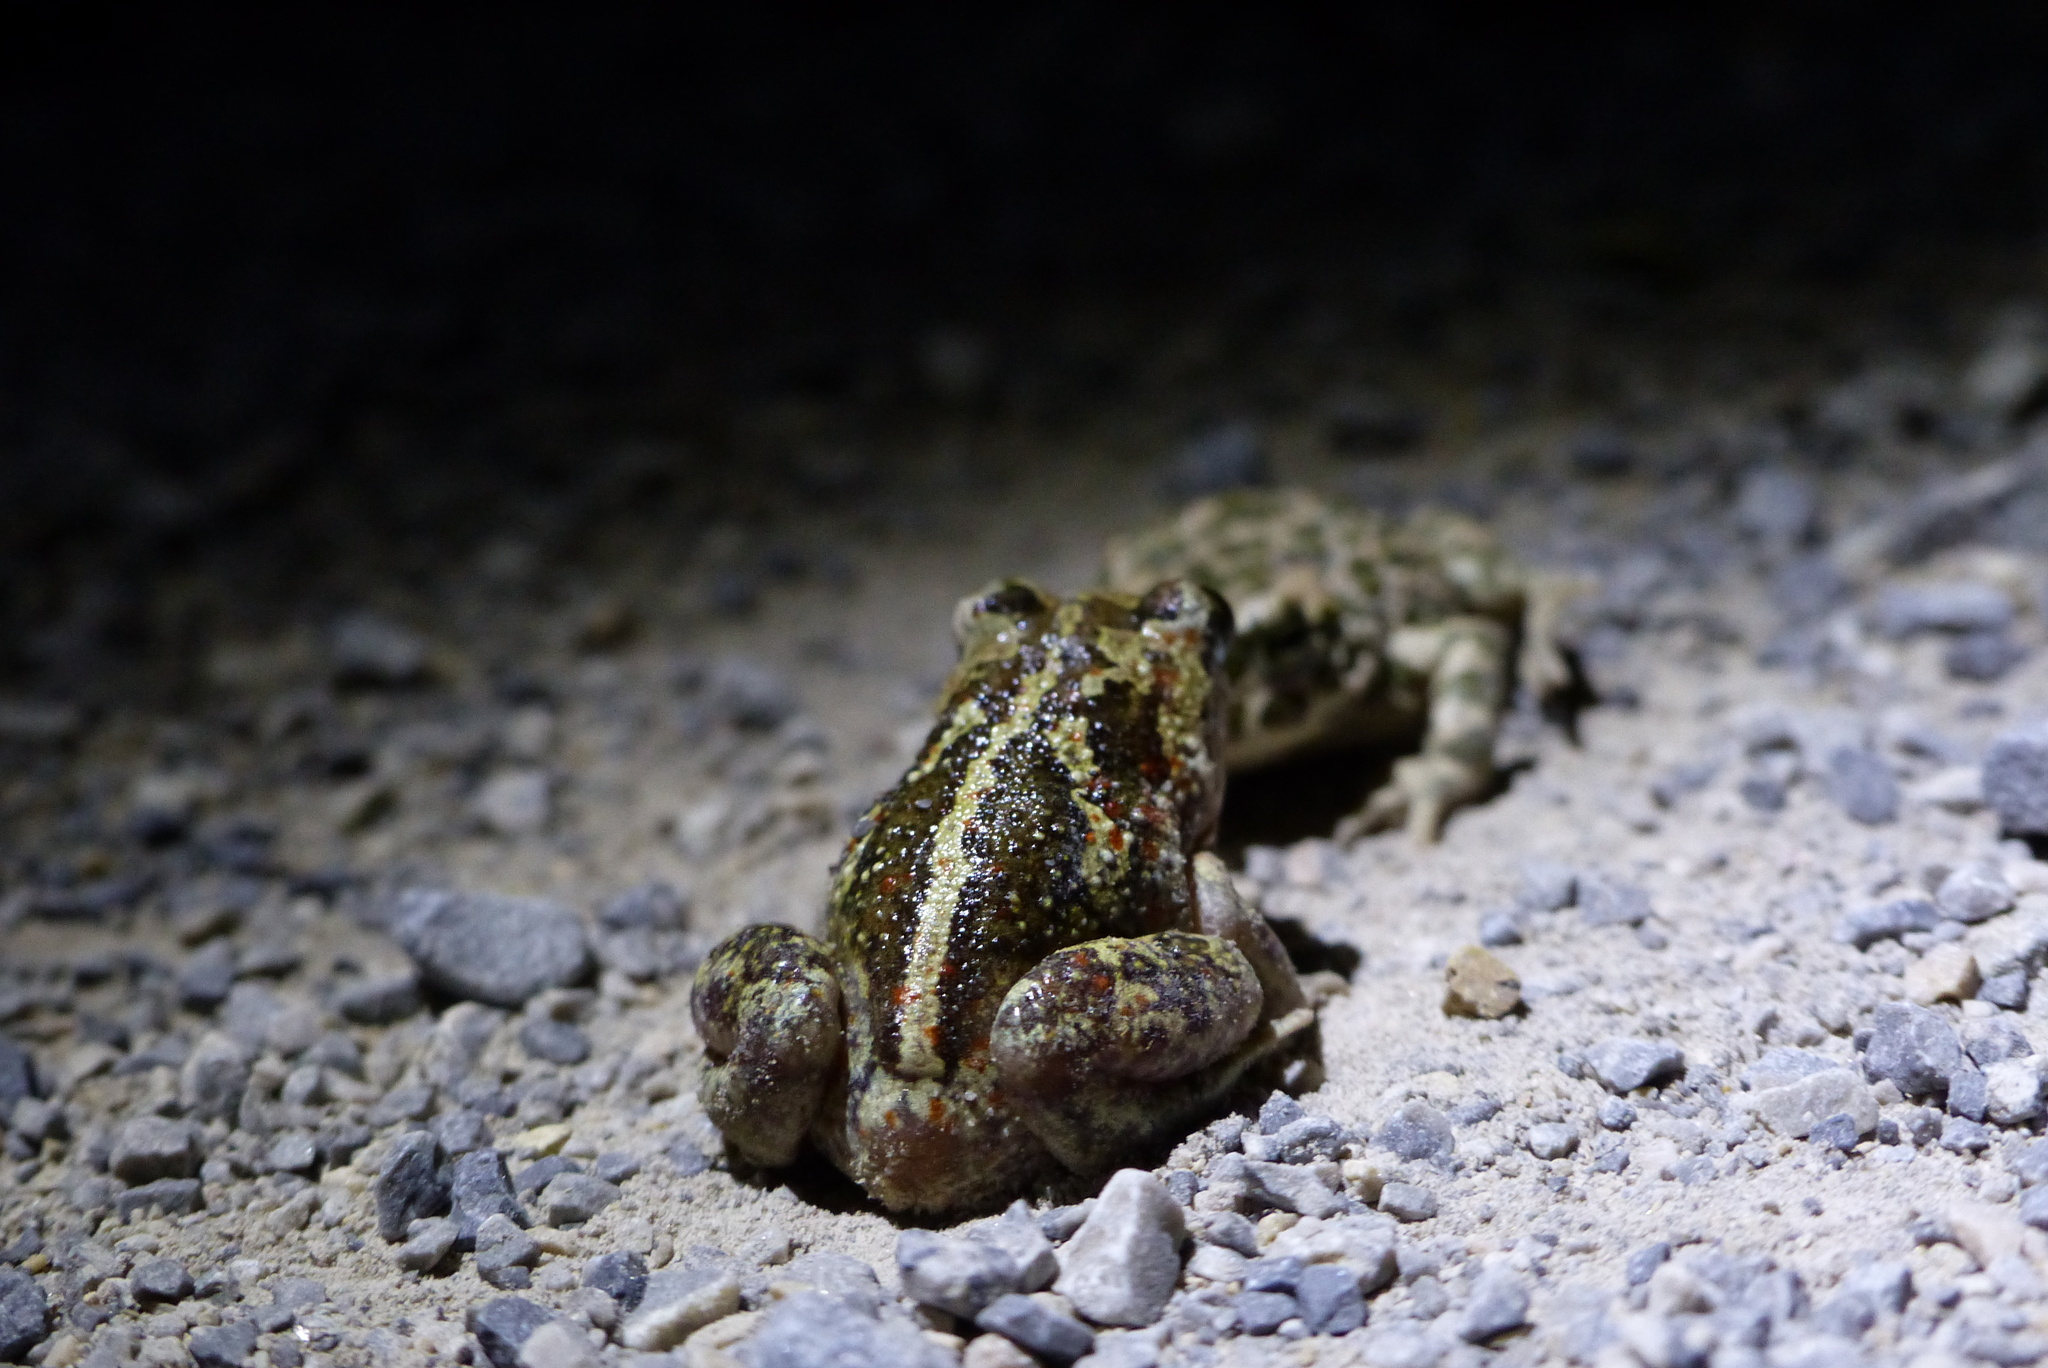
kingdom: Animalia
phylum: Chordata
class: Amphibia
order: Anura
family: Pelobatidae
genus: Pelobates
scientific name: Pelobates fuscus
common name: Common eurasian spadefoot toad
